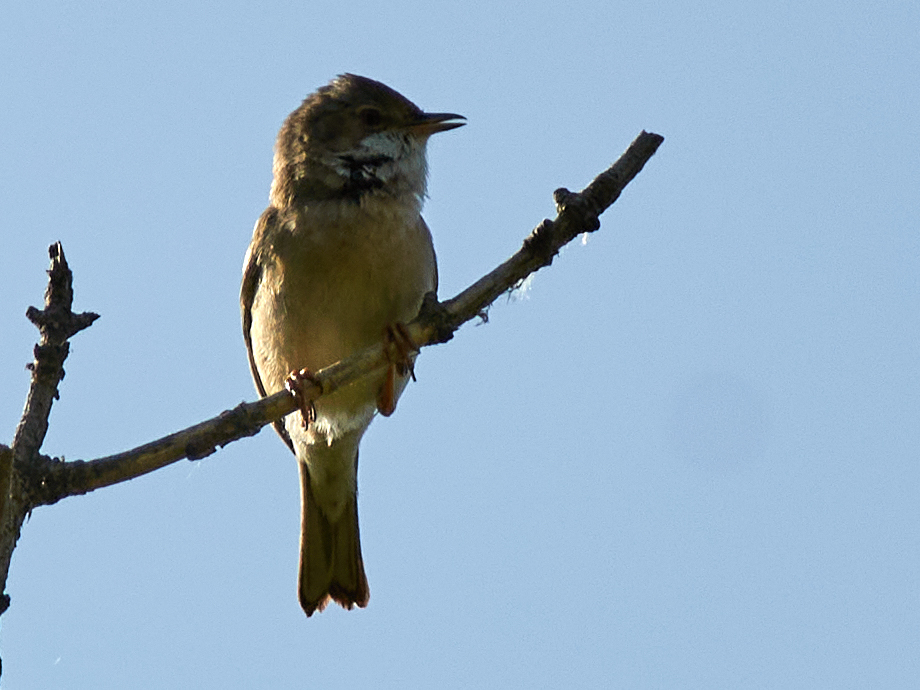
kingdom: Animalia
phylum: Chordata
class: Aves
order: Passeriformes
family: Sylviidae
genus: Sylvia
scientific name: Sylvia communis
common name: Common whitethroat
